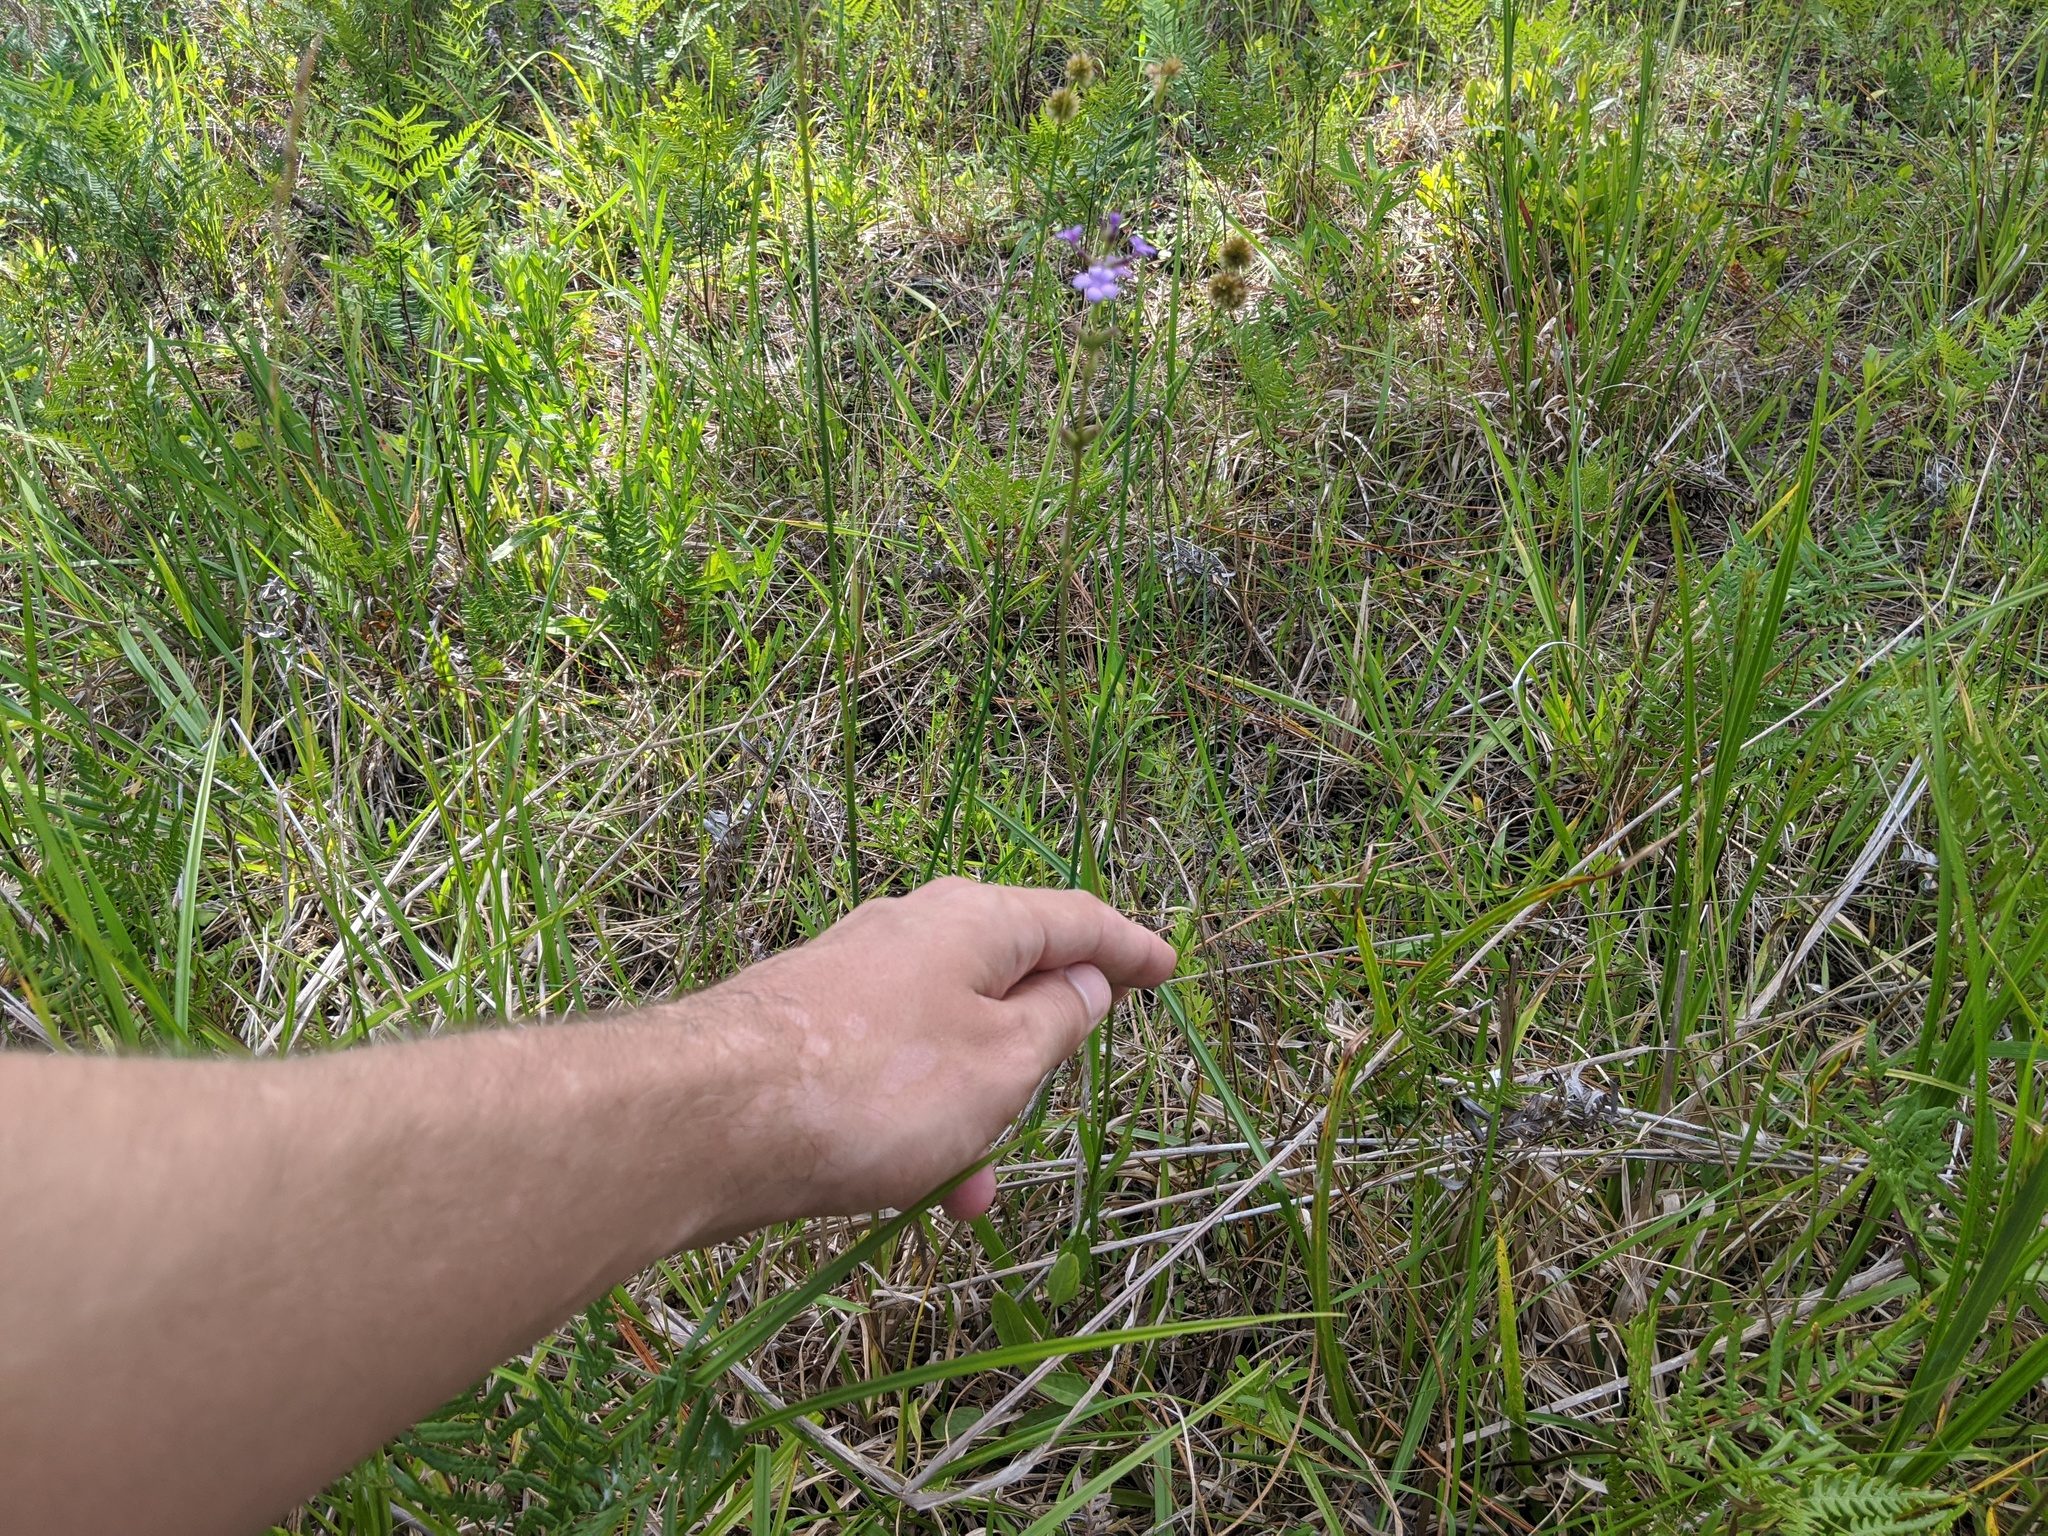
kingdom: Plantae
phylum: Tracheophyta
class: Magnoliopsida
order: Lamiales
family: Orobanchaceae
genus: Buchnera
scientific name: Buchnera floridana
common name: Florida bluehearts
